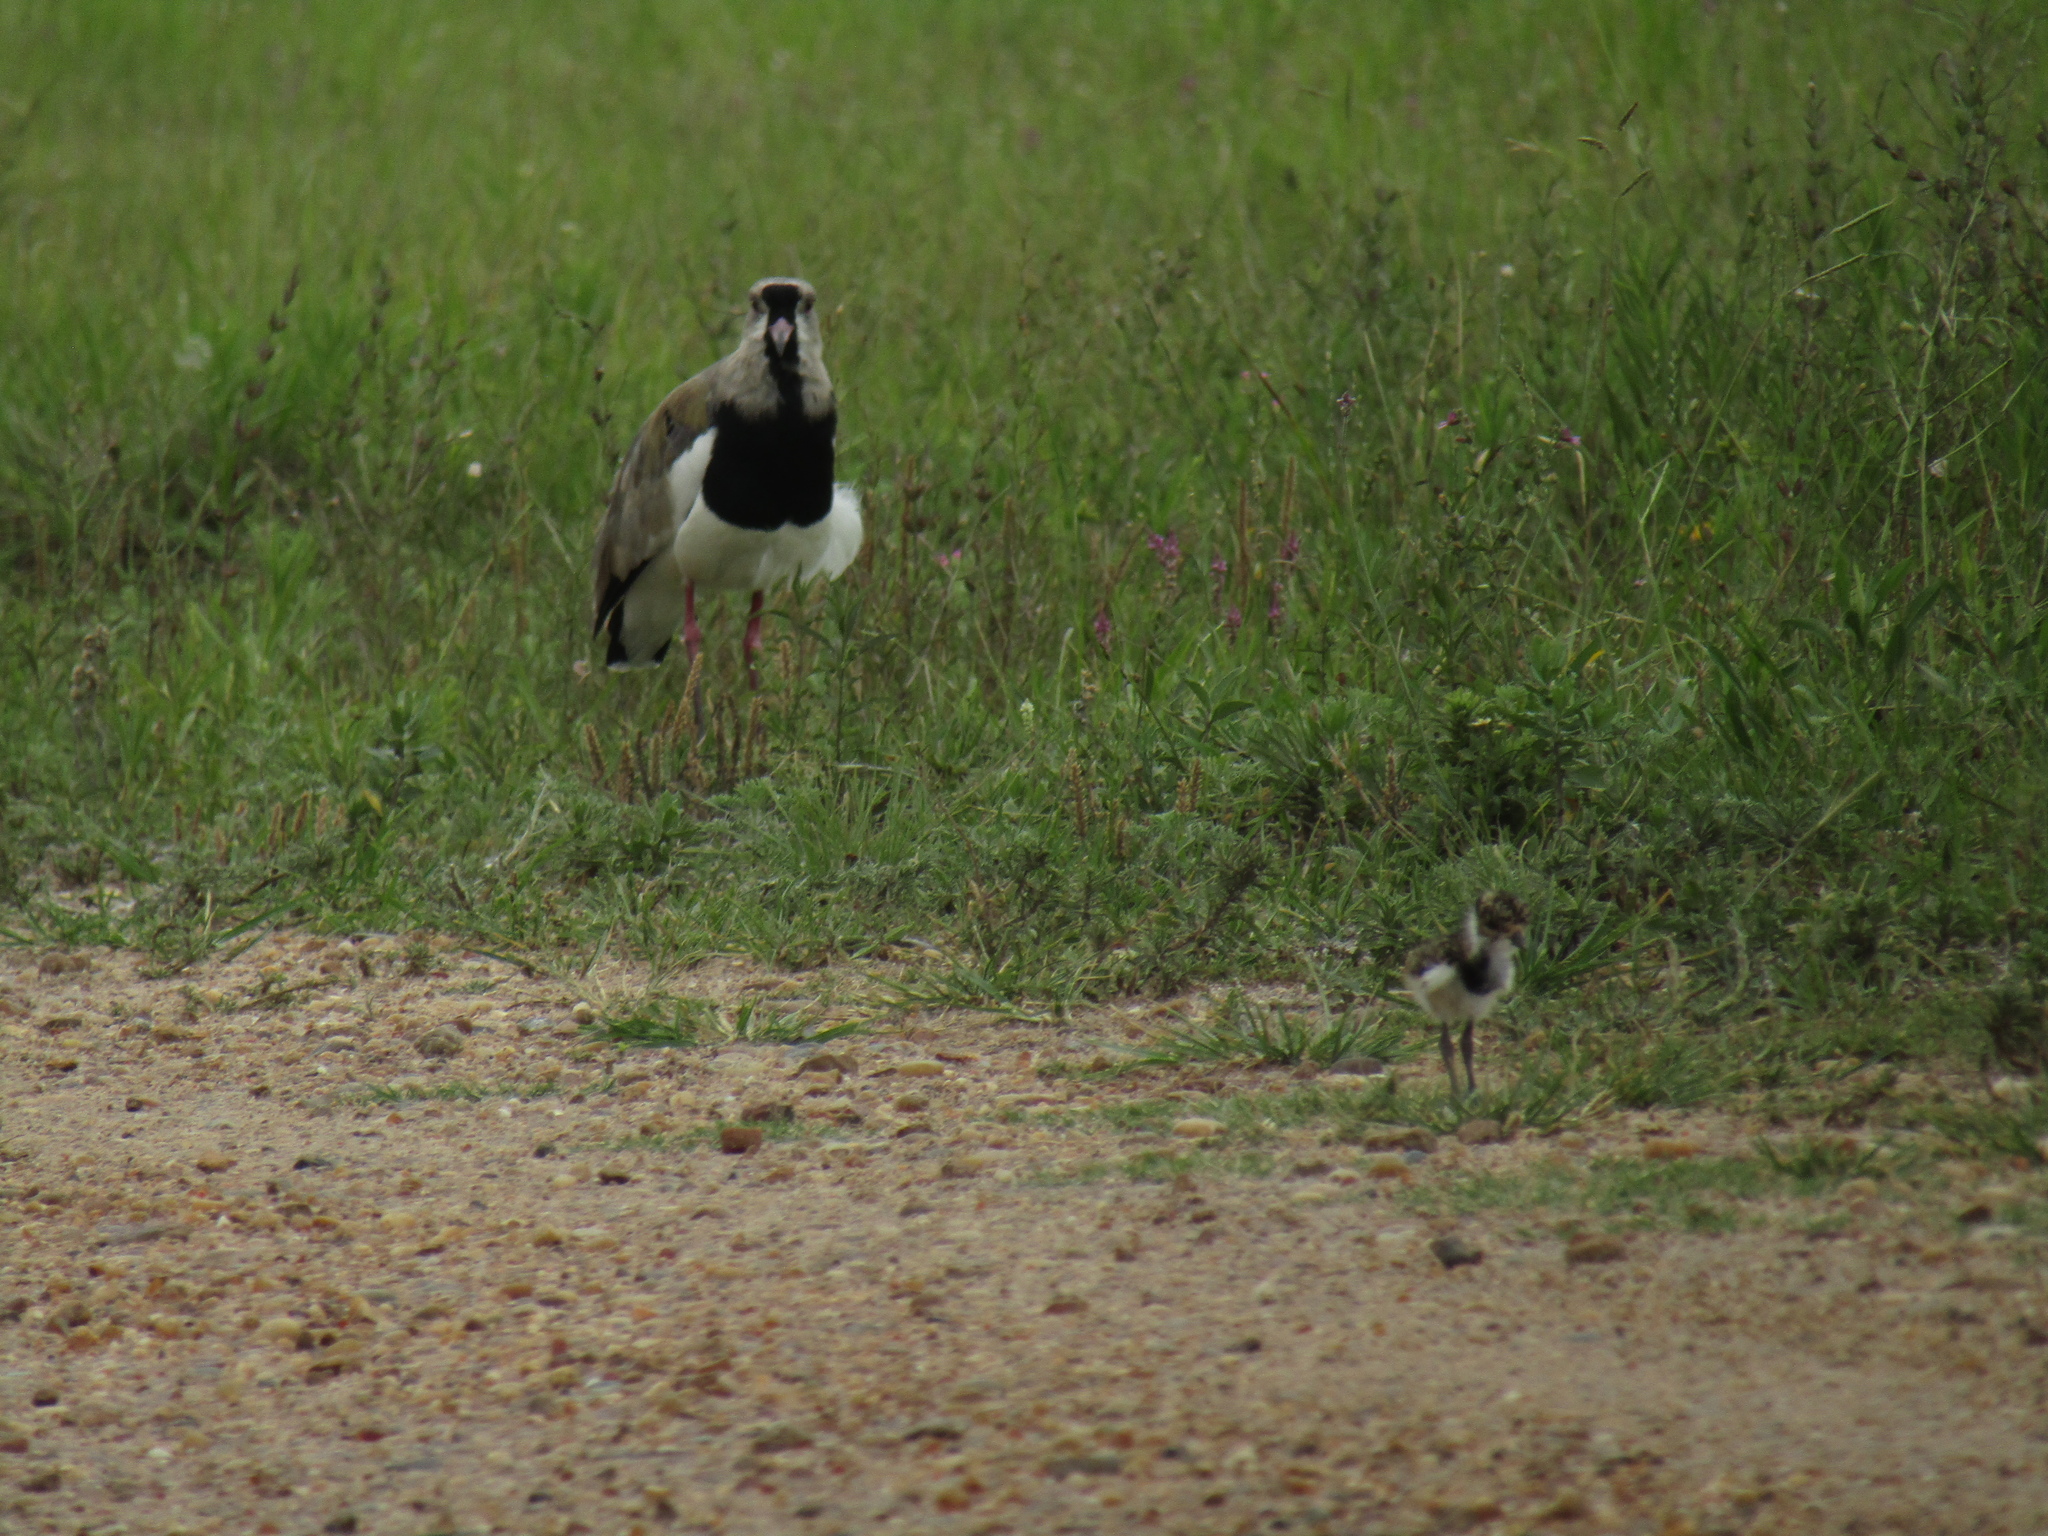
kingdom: Animalia
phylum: Chordata
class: Aves
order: Charadriiformes
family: Charadriidae
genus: Vanellus
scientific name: Vanellus chilensis
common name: Southern lapwing
